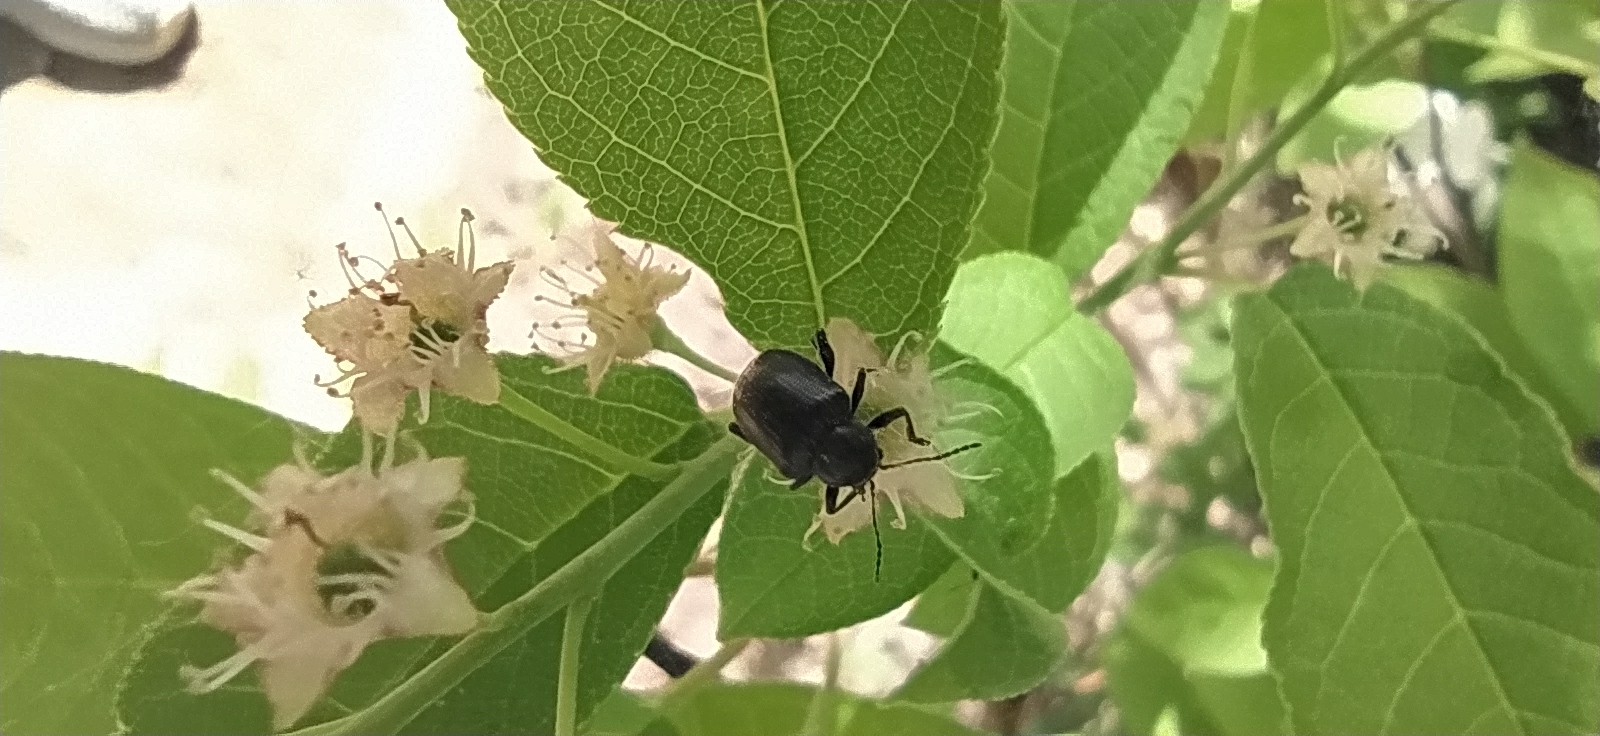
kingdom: Animalia
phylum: Arthropoda
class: Insecta
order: Coleoptera
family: Chrysomelidae
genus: Bromius
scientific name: Bromius obscurus
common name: Western grape rootworm
